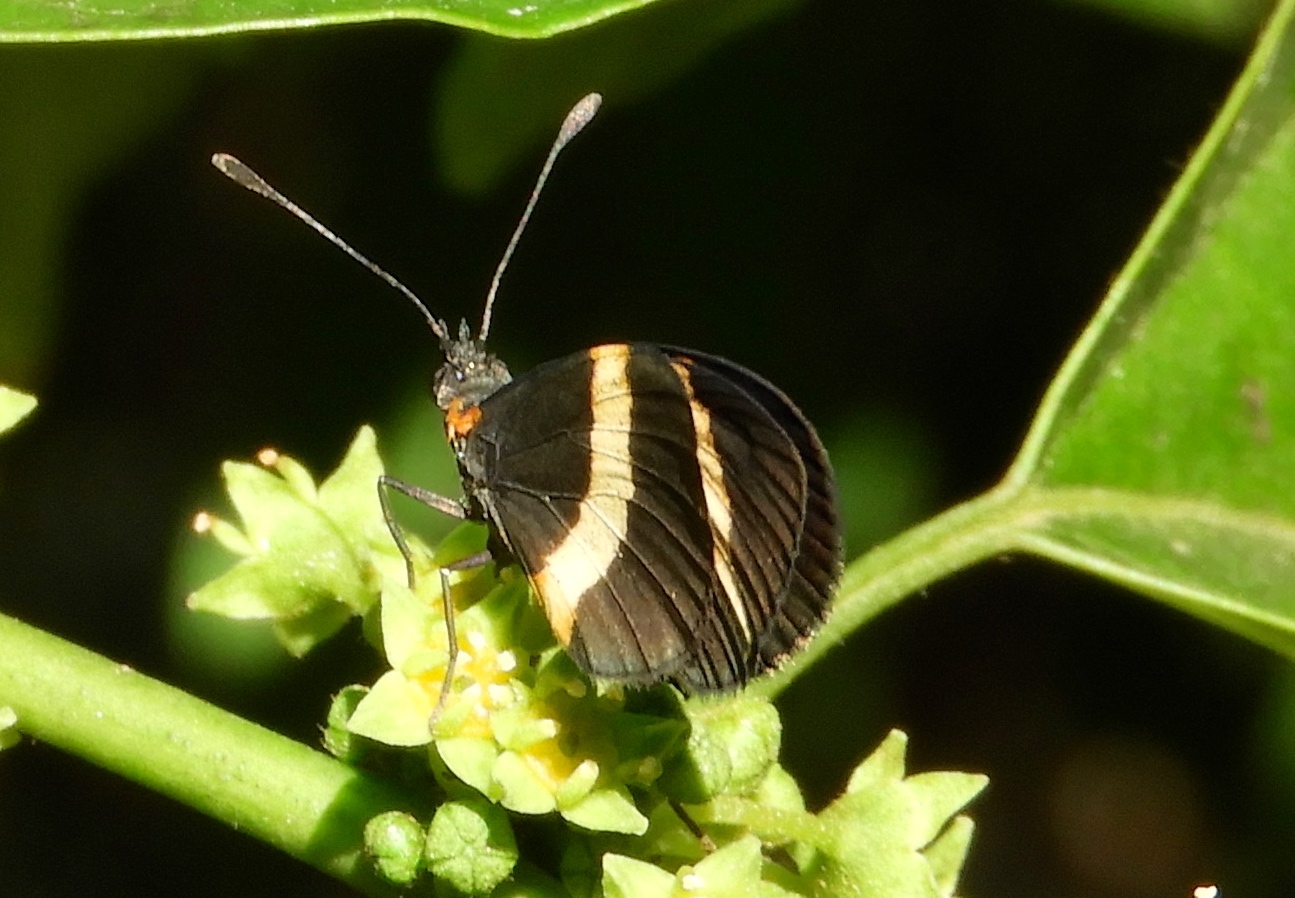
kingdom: Animalia
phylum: Arthropoda
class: Insecta
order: Lepidoptera
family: Nymphalidae
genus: Microtia
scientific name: Microtia elva
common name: Elf
